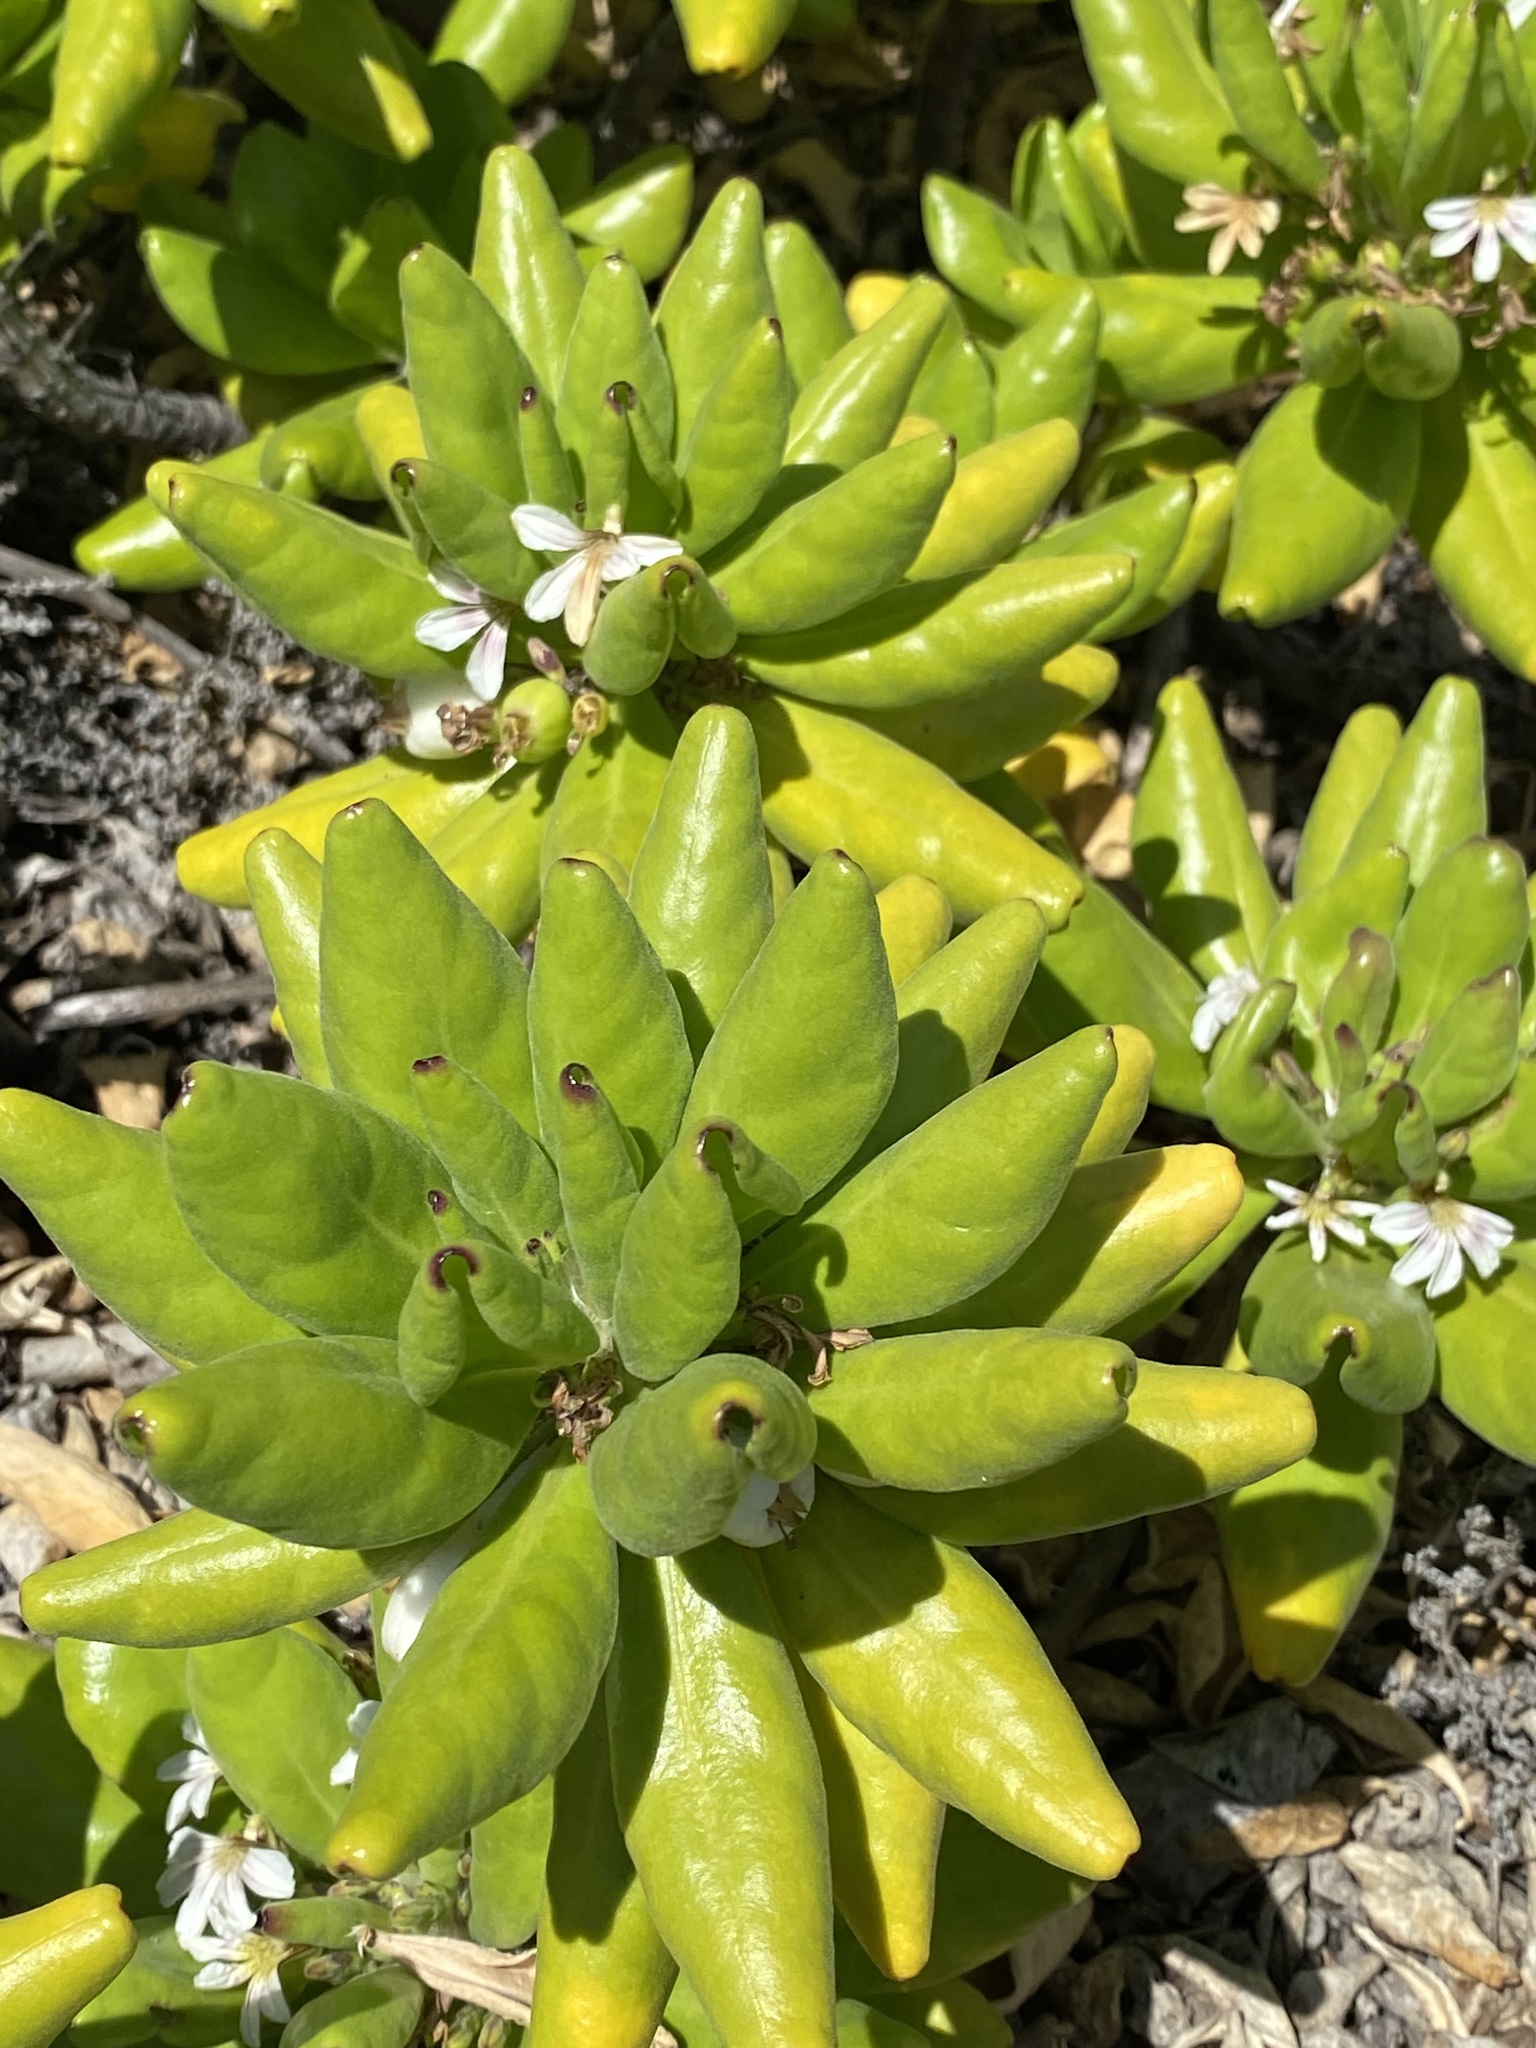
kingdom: Plantae
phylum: Tracheophyta
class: Magnoliopsida
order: Asterales
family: Goodeniaceae
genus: Scaevola
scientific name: Scaevola taccada
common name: Sea lettucetree
